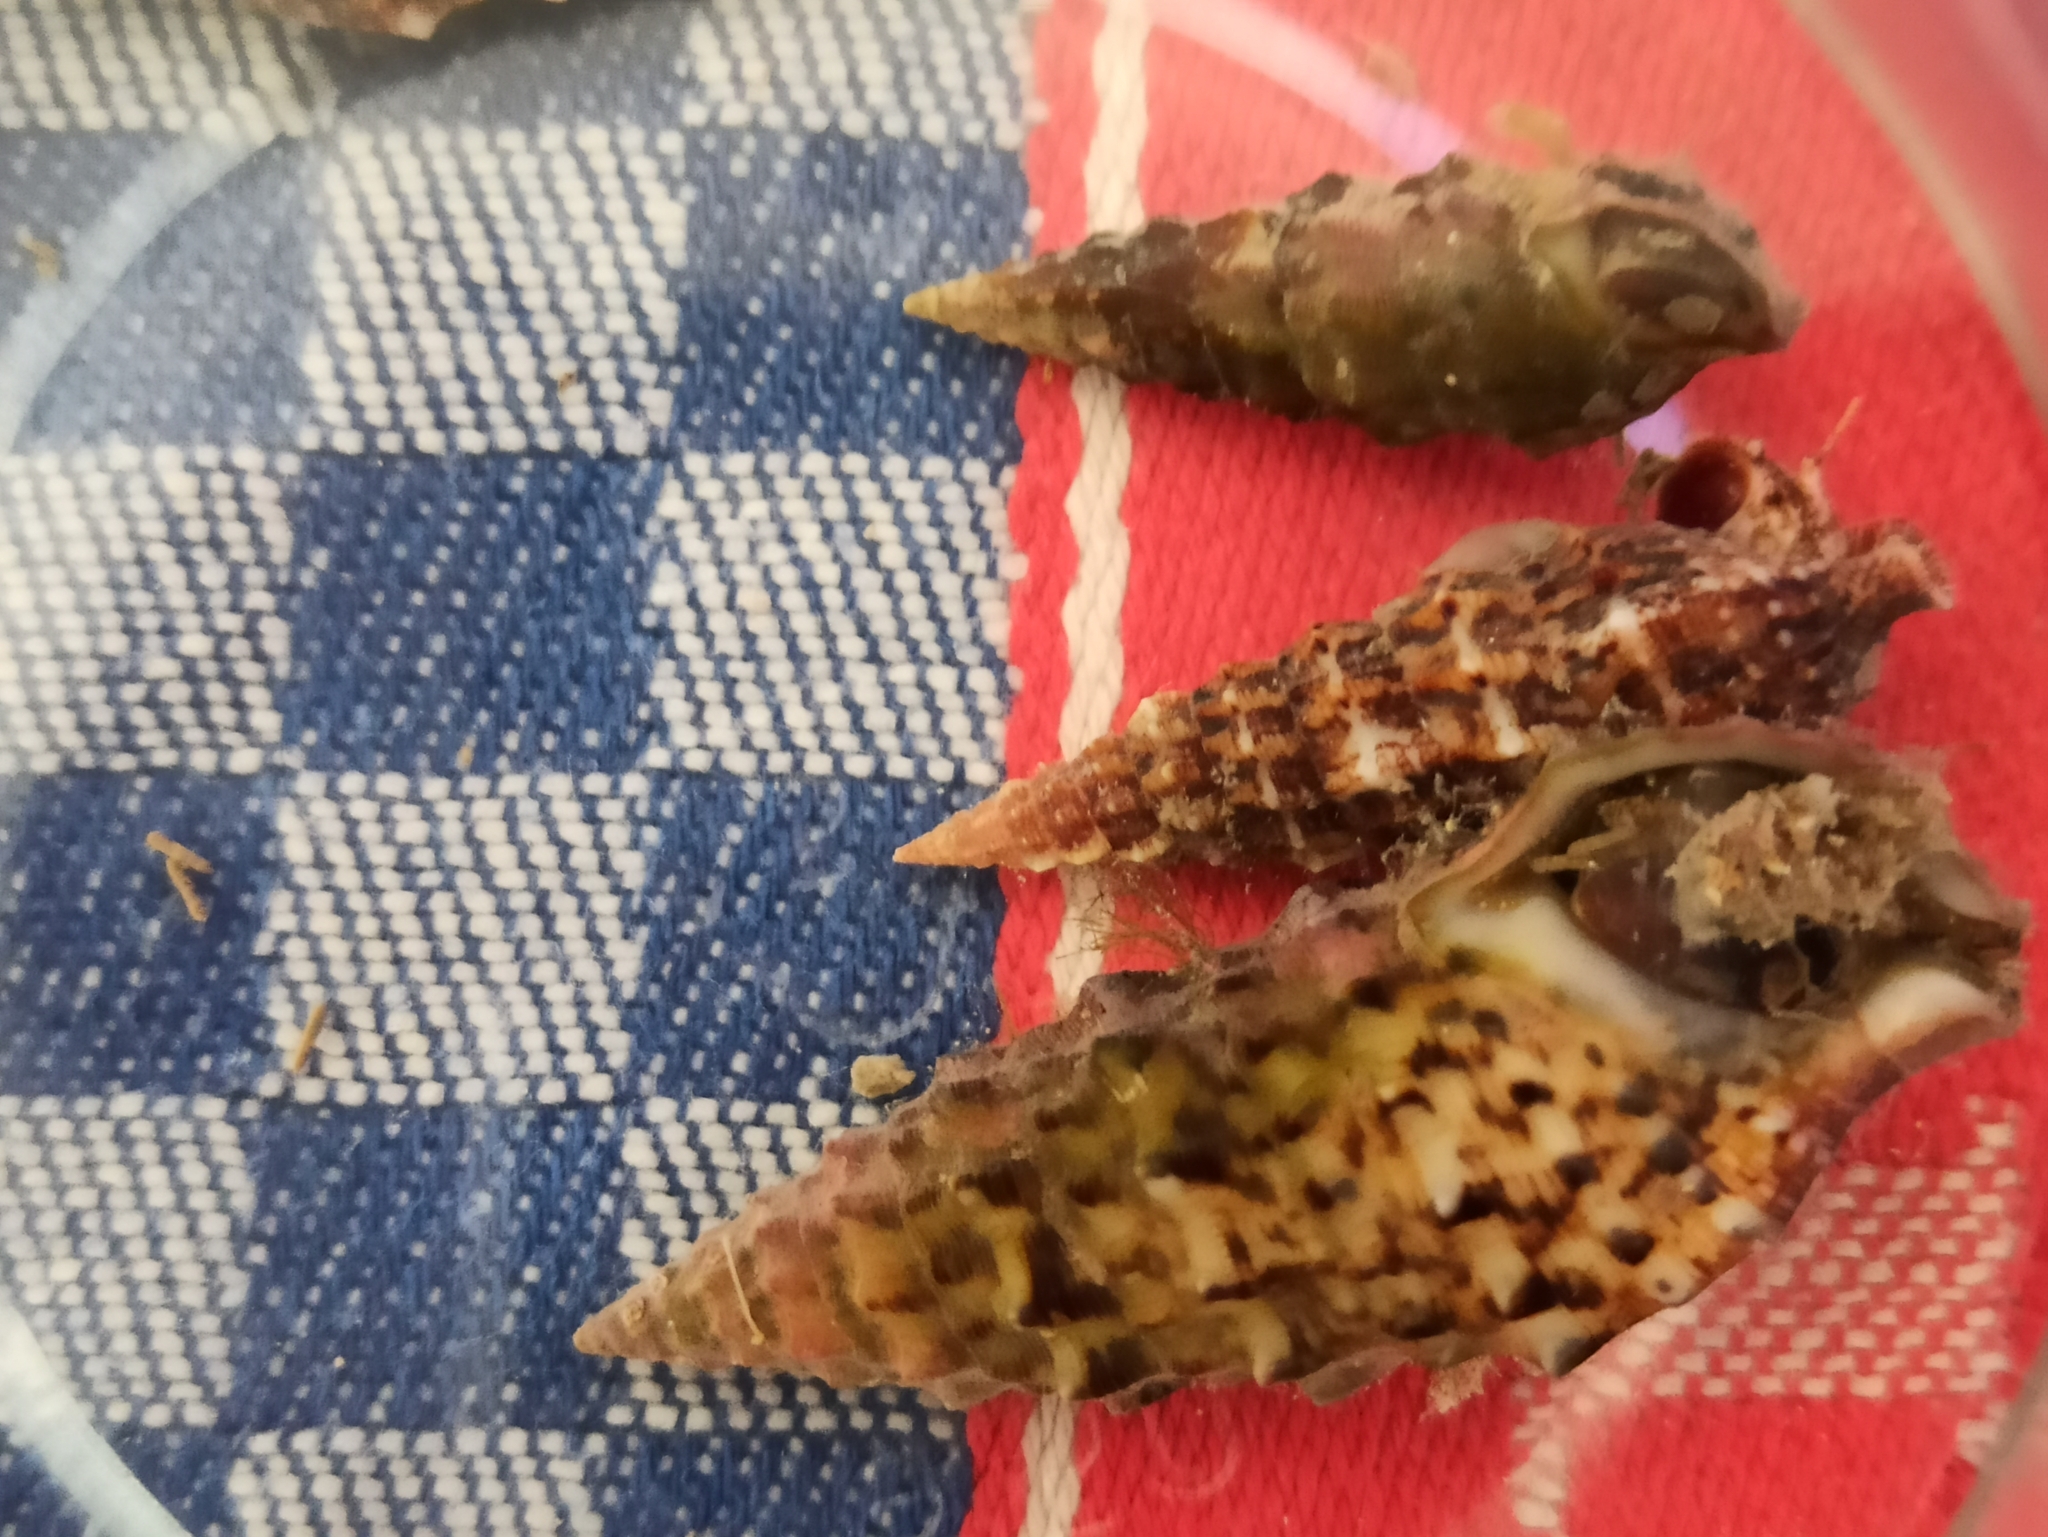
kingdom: Animalia
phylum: Mollusca
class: Gastropoda
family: Cerithiidae
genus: Cerithium
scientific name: Cerithium vulgatum
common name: European cerith
